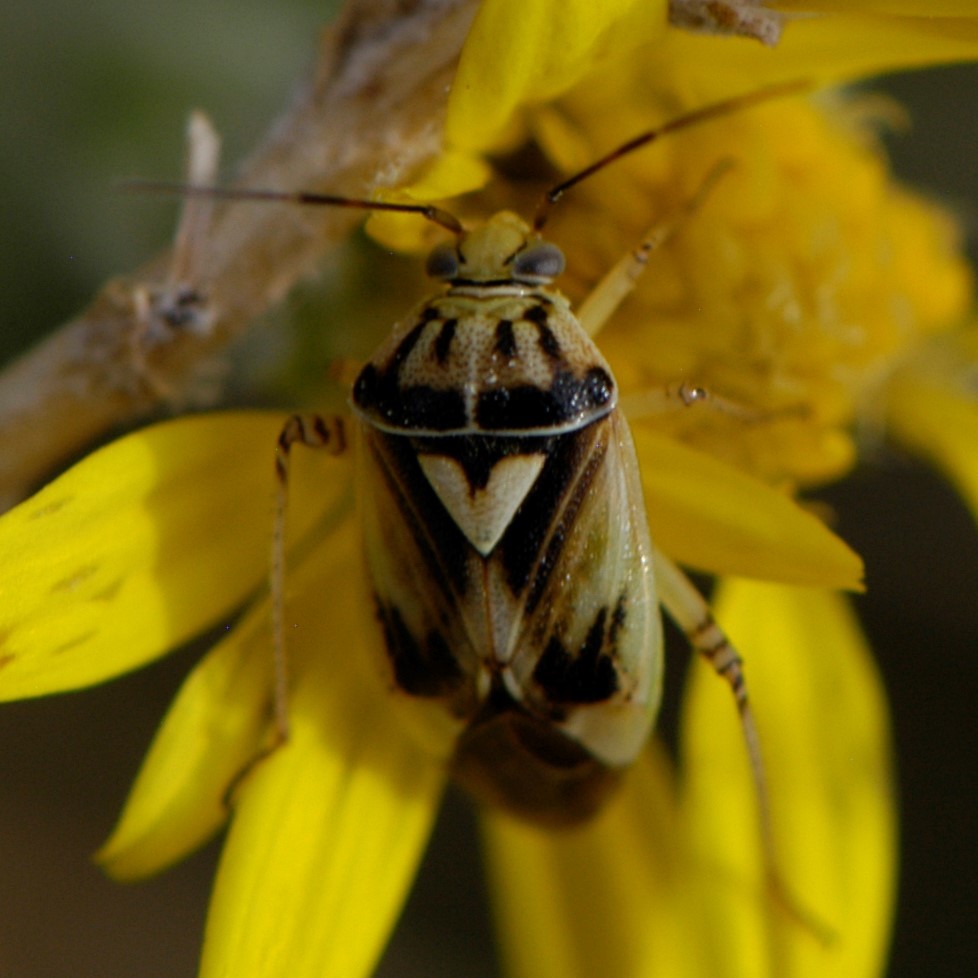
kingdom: Animalia
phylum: Arthropoda
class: Insecta
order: Hemiptera
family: Miridae
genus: Lygus
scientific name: Lygus atriflavus
